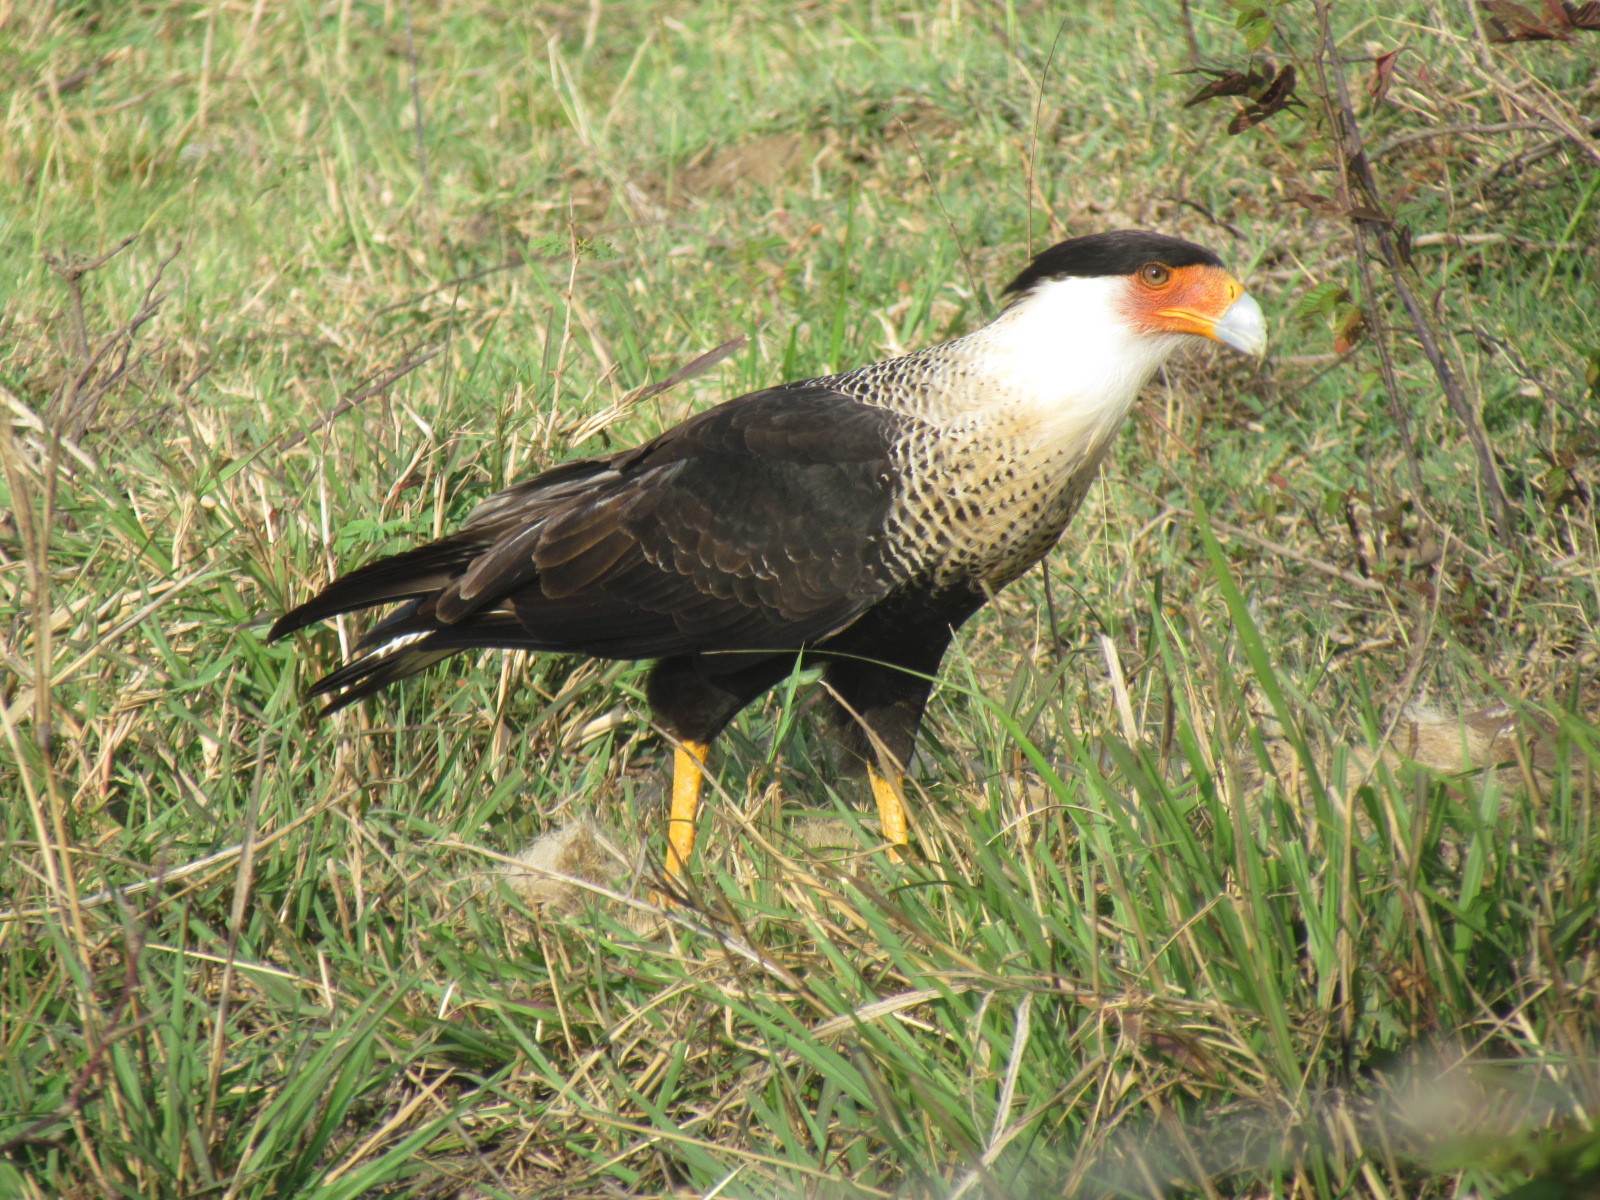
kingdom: Animalia
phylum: Chordata
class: Aves
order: Falconiformes
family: Falconidae
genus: Caracara
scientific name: Caracara plancus
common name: Southern caracara
